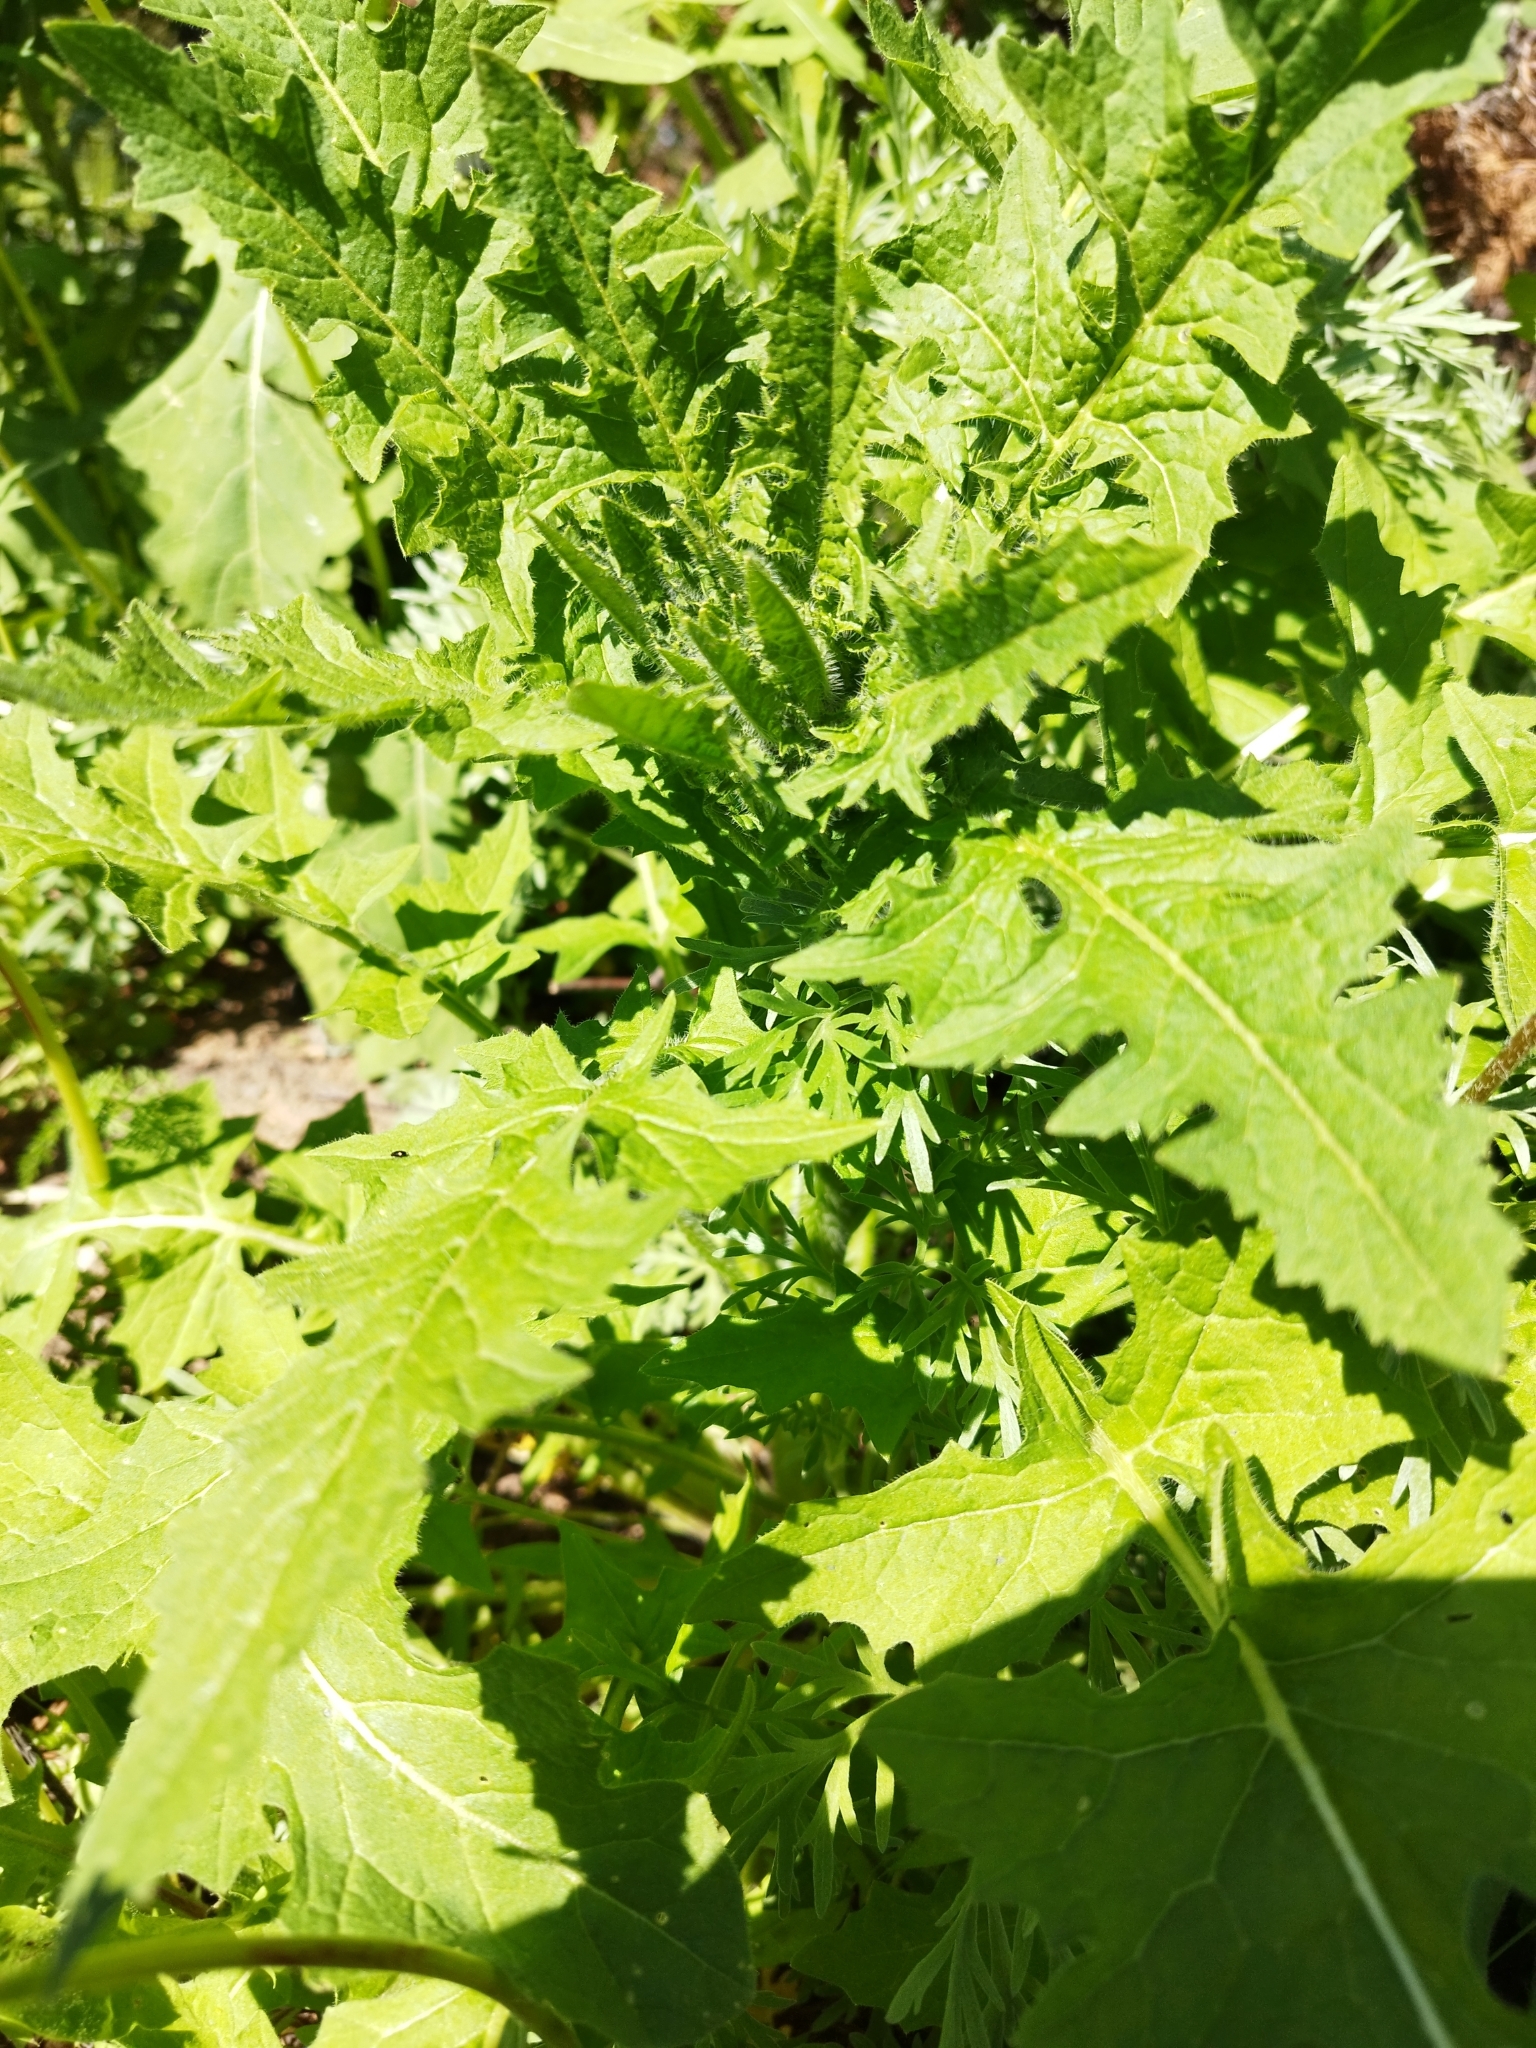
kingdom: Plantae
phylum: Tracheophyta
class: Magnoliopsida
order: Brassicales
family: Brassicaceae
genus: Sisymbrium
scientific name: Sisymbrium loeselii
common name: False london-rocket
